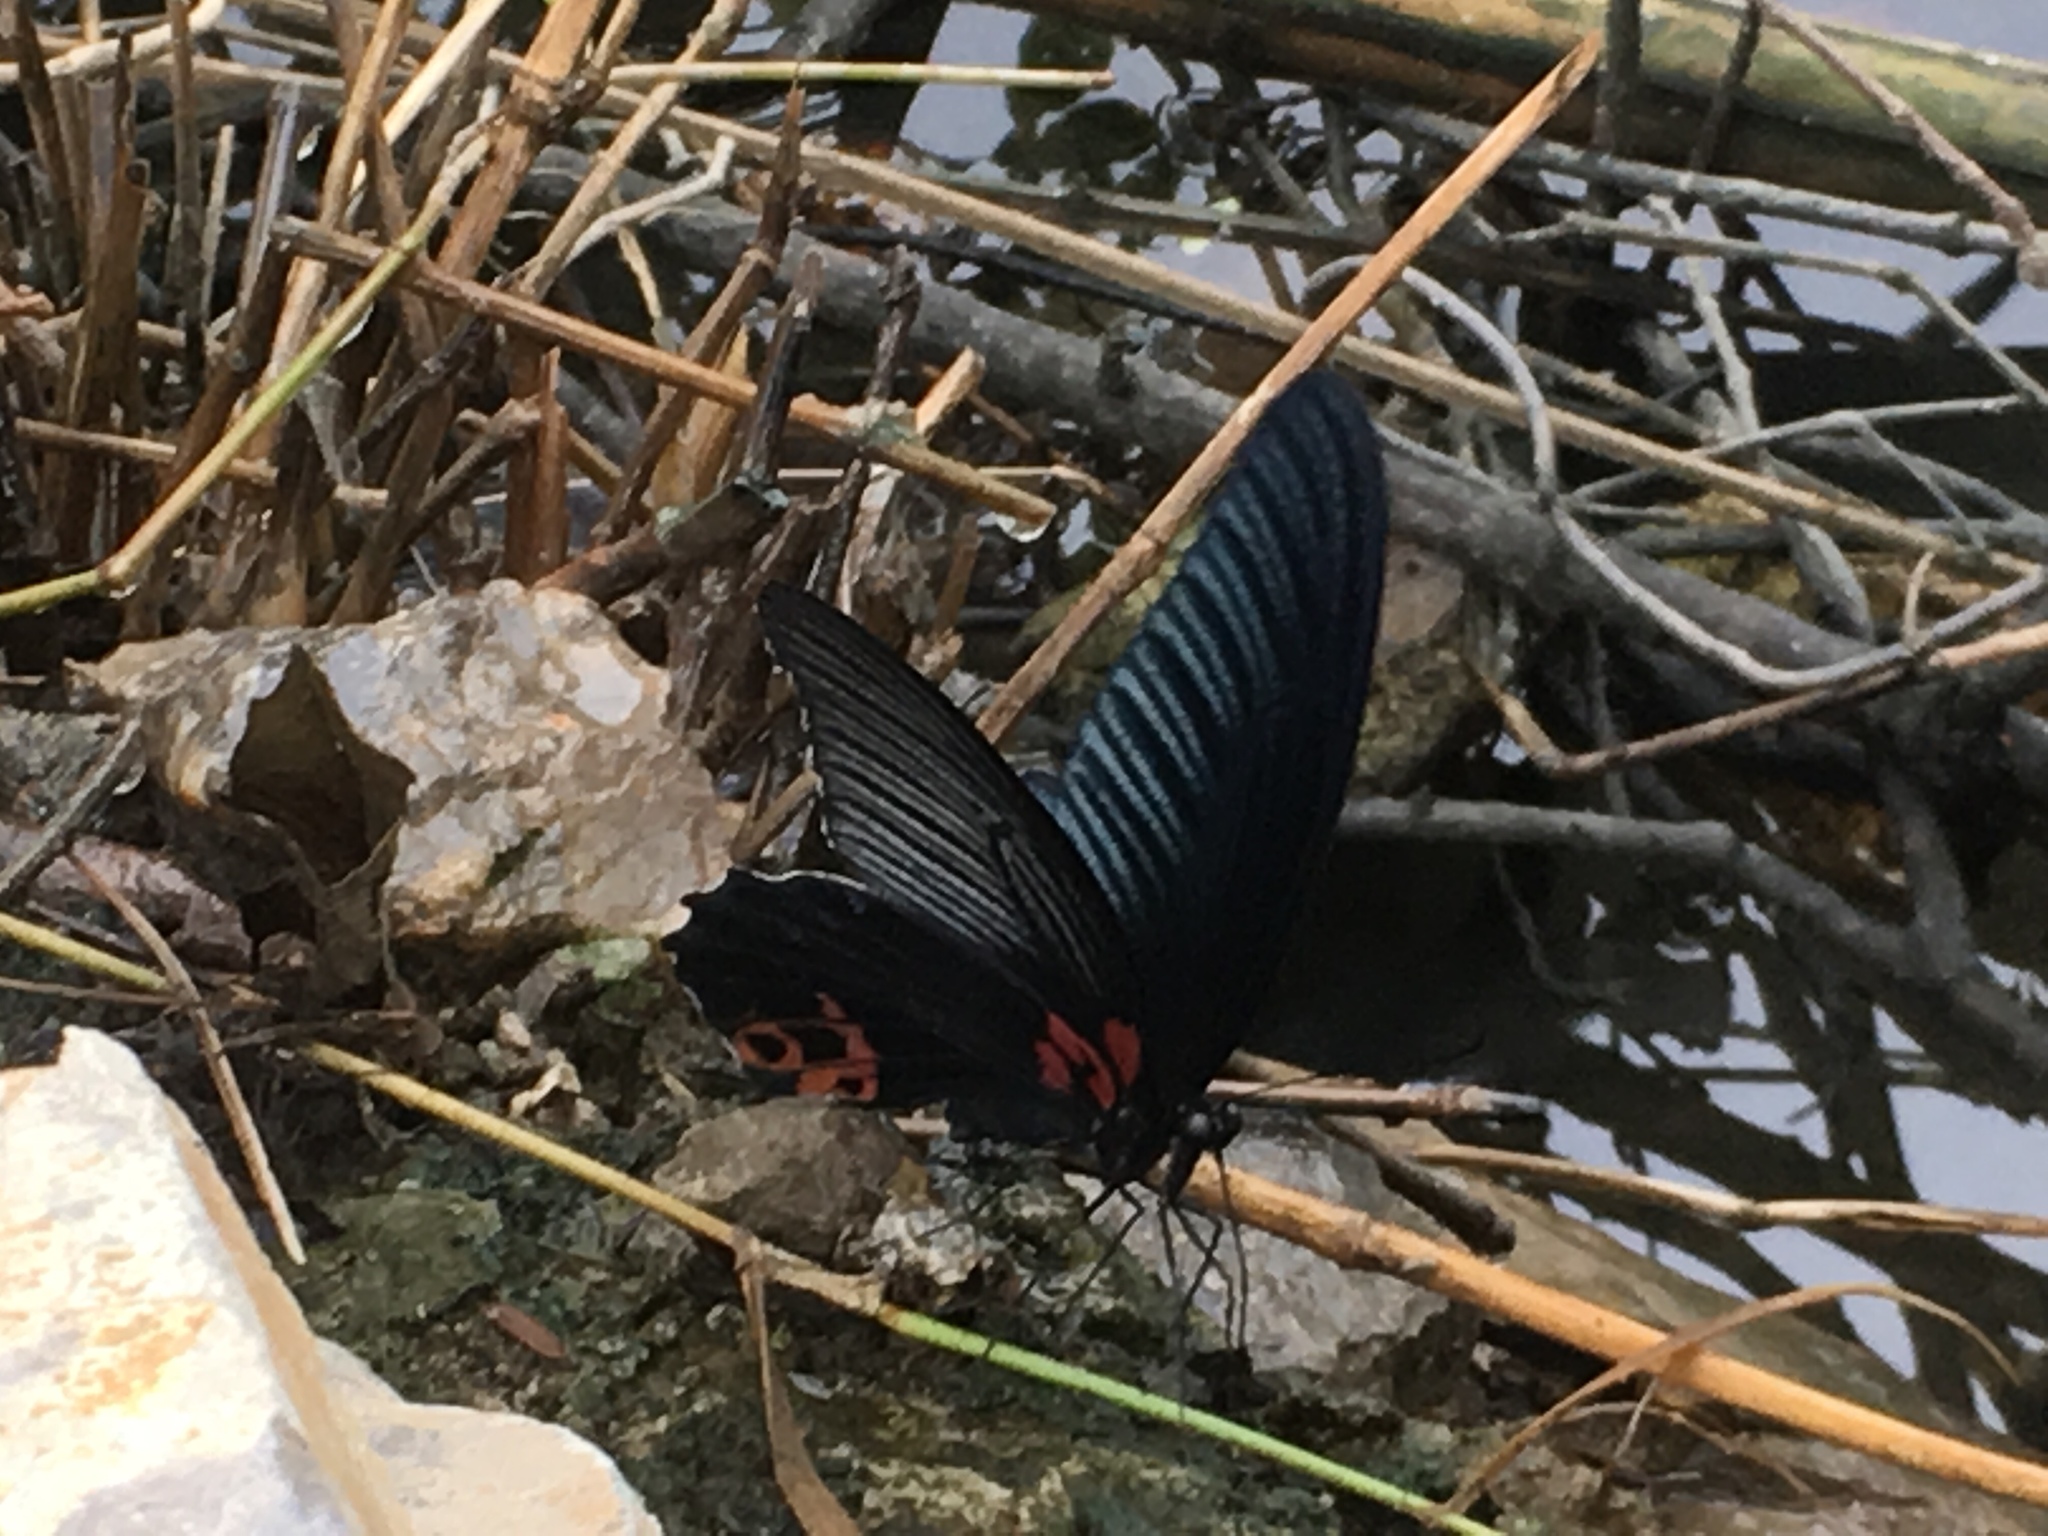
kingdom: Animalia
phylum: Arthropoda
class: Insecta
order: Lepidoptera
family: Papilionidae
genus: Papilio
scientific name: Papilio memnon
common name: Great mormon
